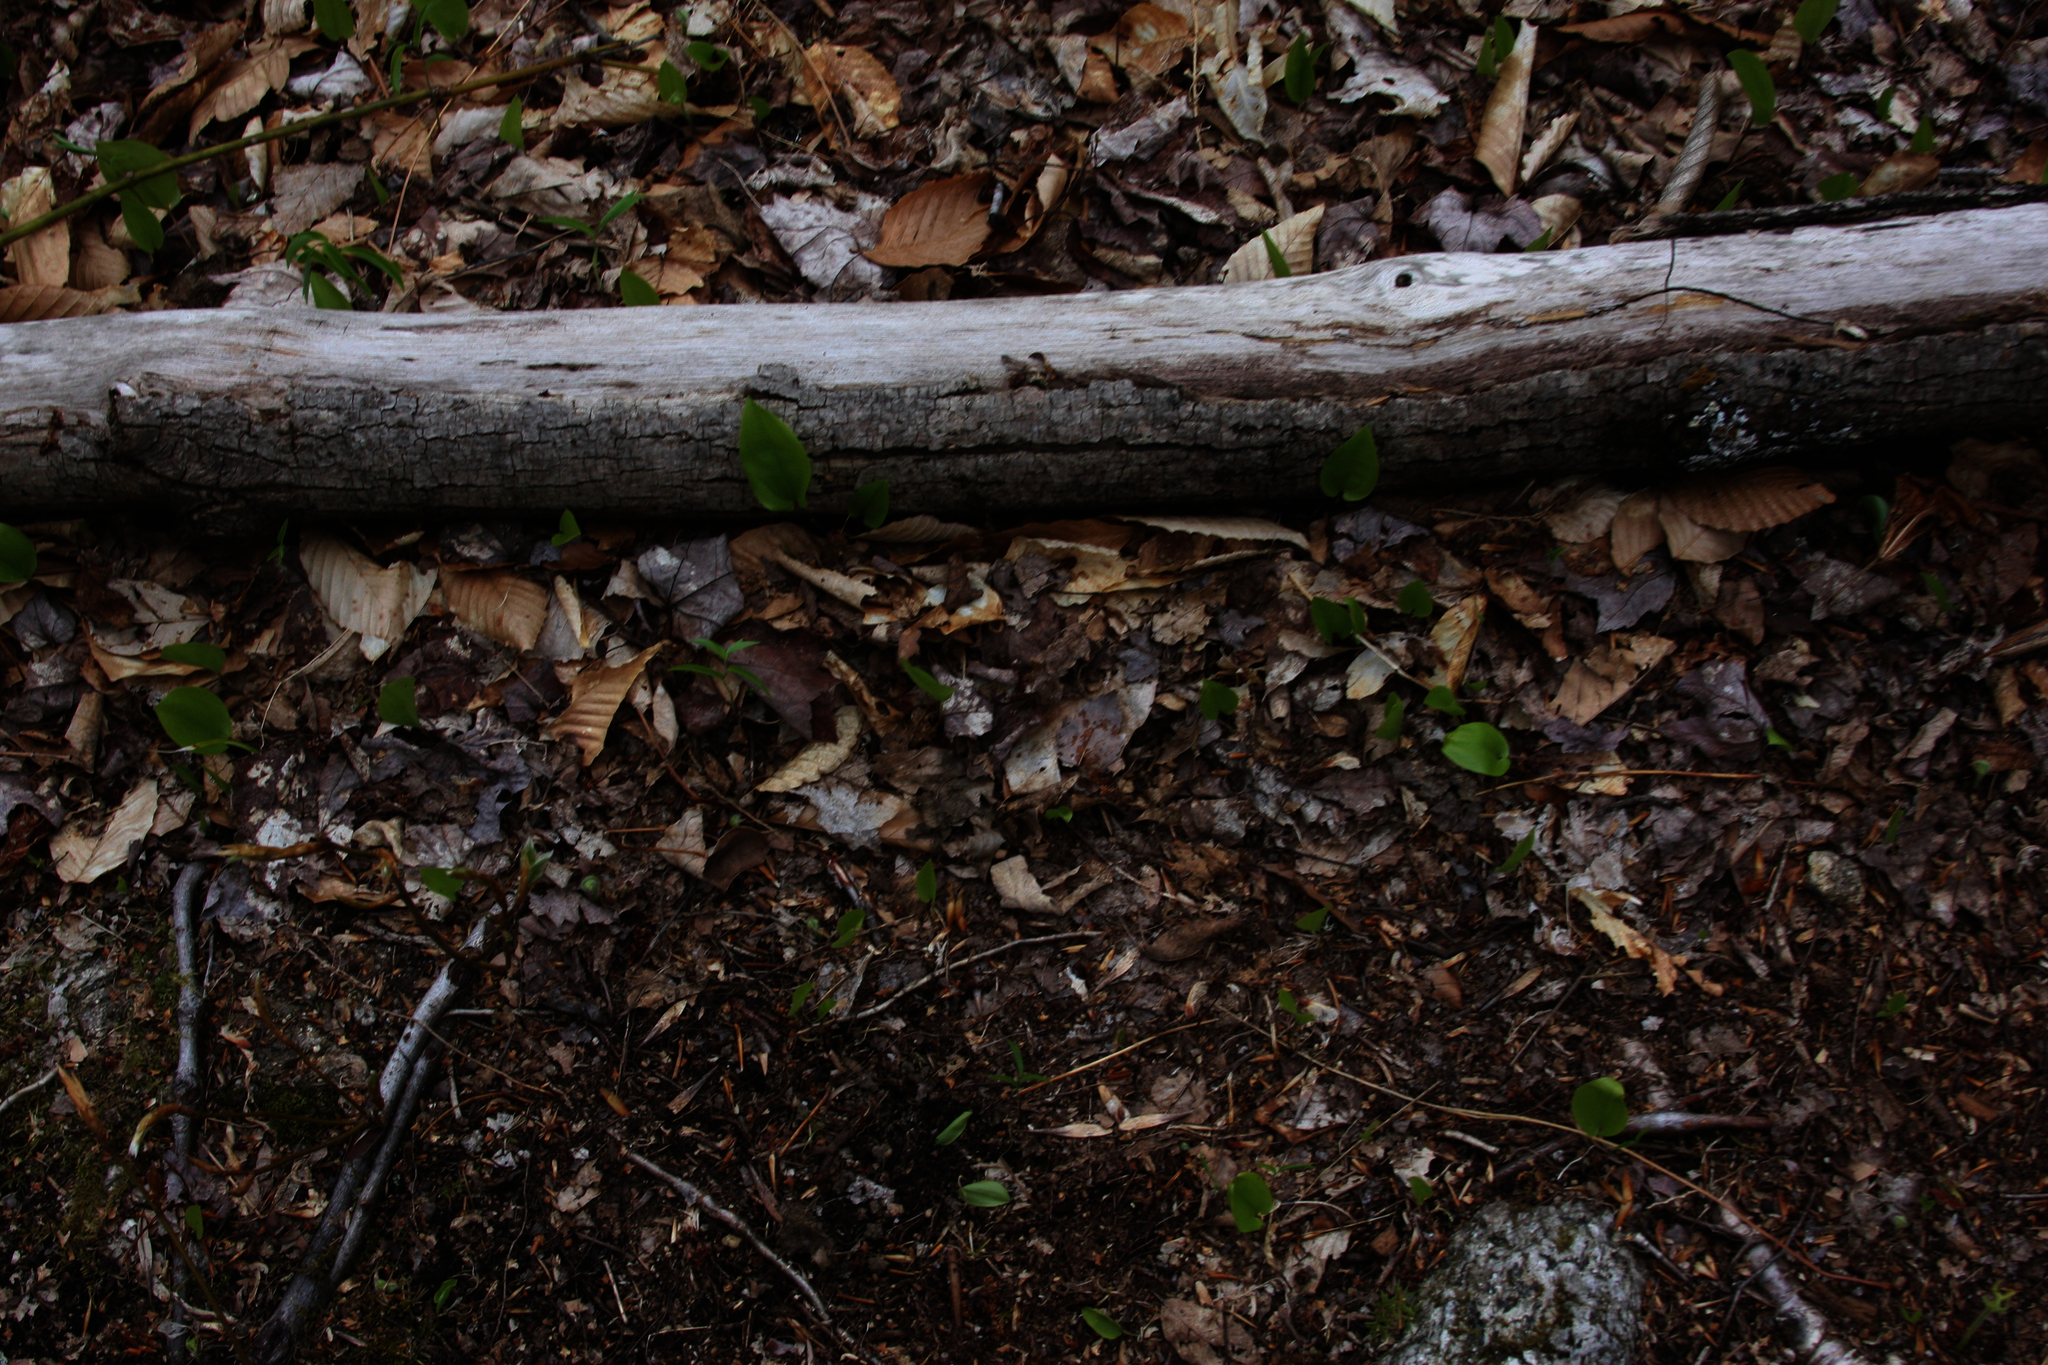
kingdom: Plantae
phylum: Tracheophyta
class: Liliopsida
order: Asparagales
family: Asparagaceae
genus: Maianthemum
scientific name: Maianthemum canadense
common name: False lily-of-the-valley
